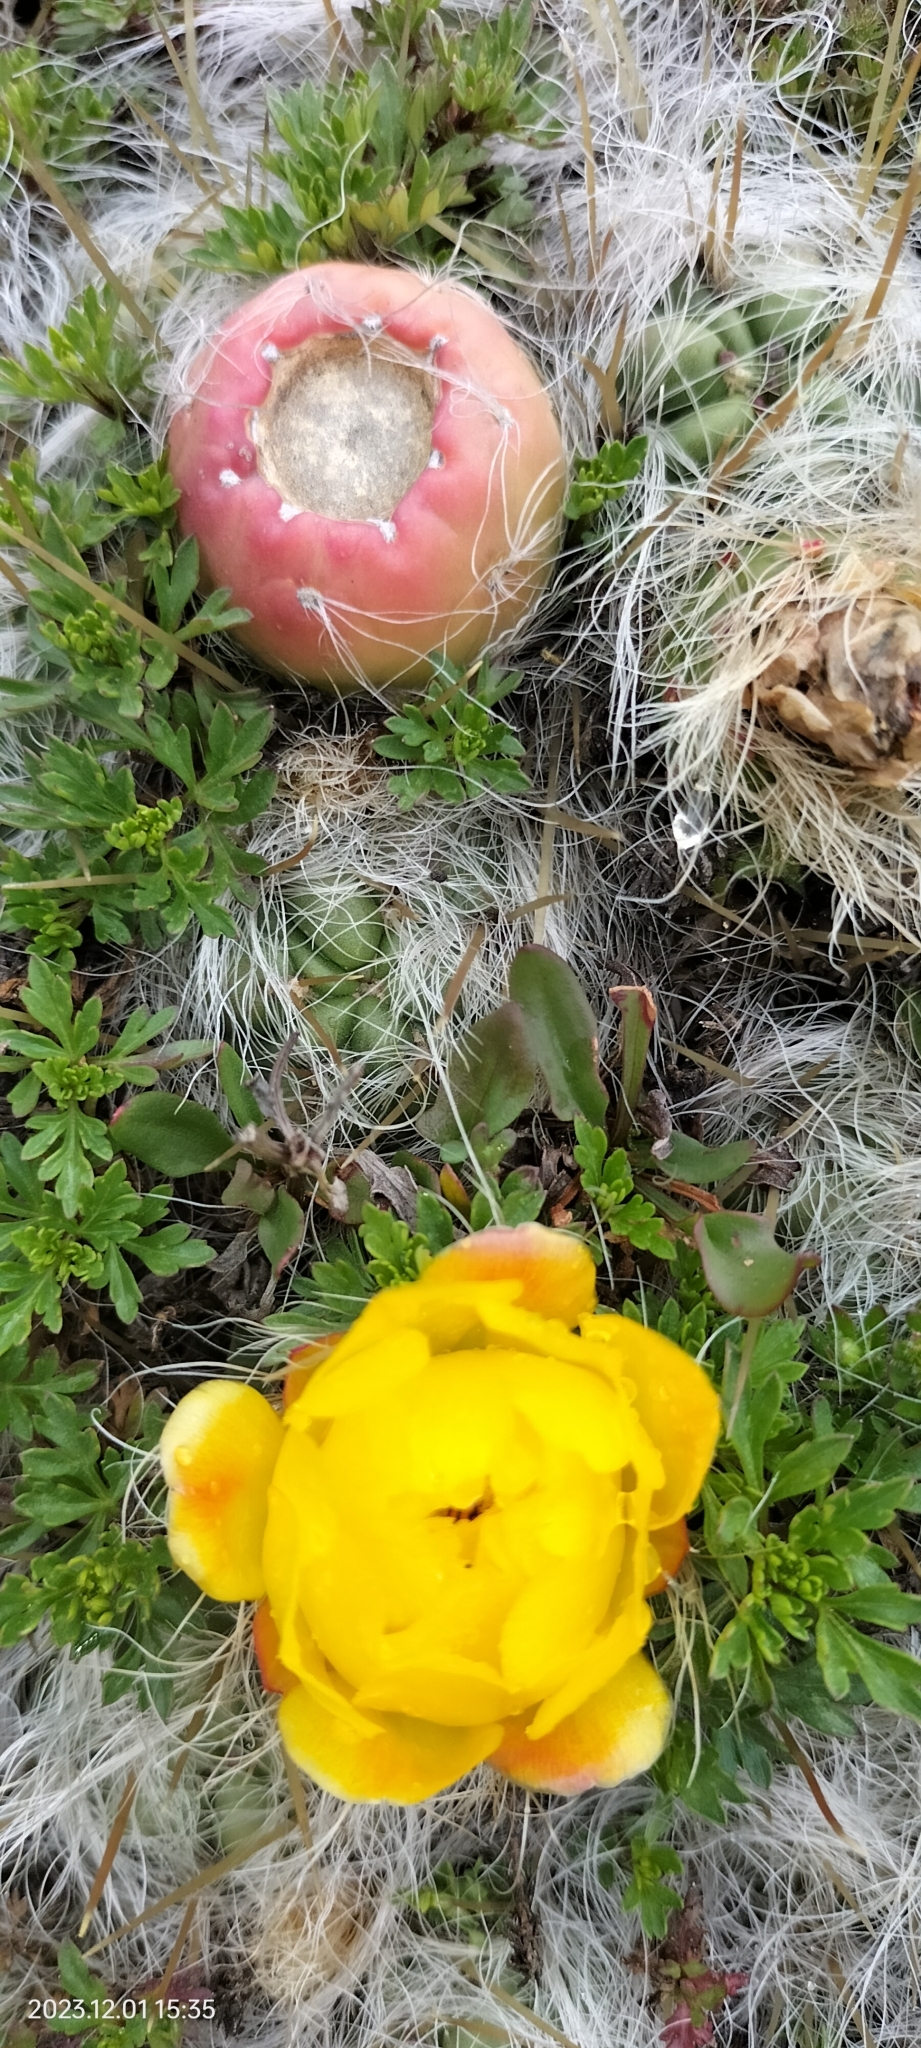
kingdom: Plantae
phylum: Tracheophyta
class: Magnoliopsida
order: Caryophyllales
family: Cactaceae
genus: Austrocylindropuntia
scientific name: Austrocylindropuntia floccosa
